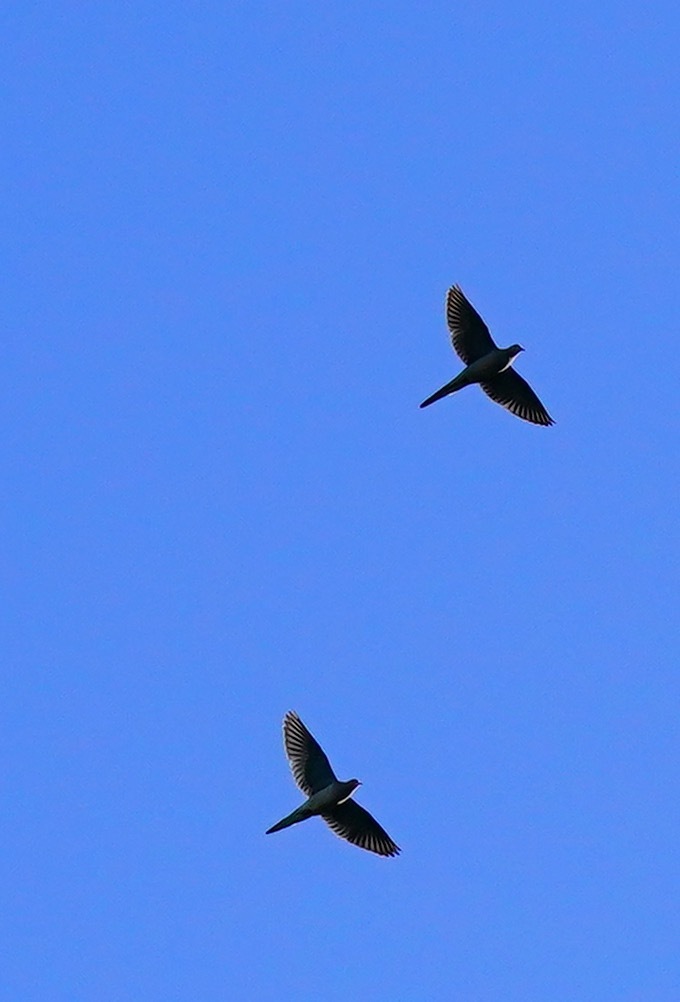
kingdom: Animalia
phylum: Chordata
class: Aves
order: Columbiformes
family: Columbidae
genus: Zenaida
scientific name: Zenaida macroura
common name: Mourning dove
